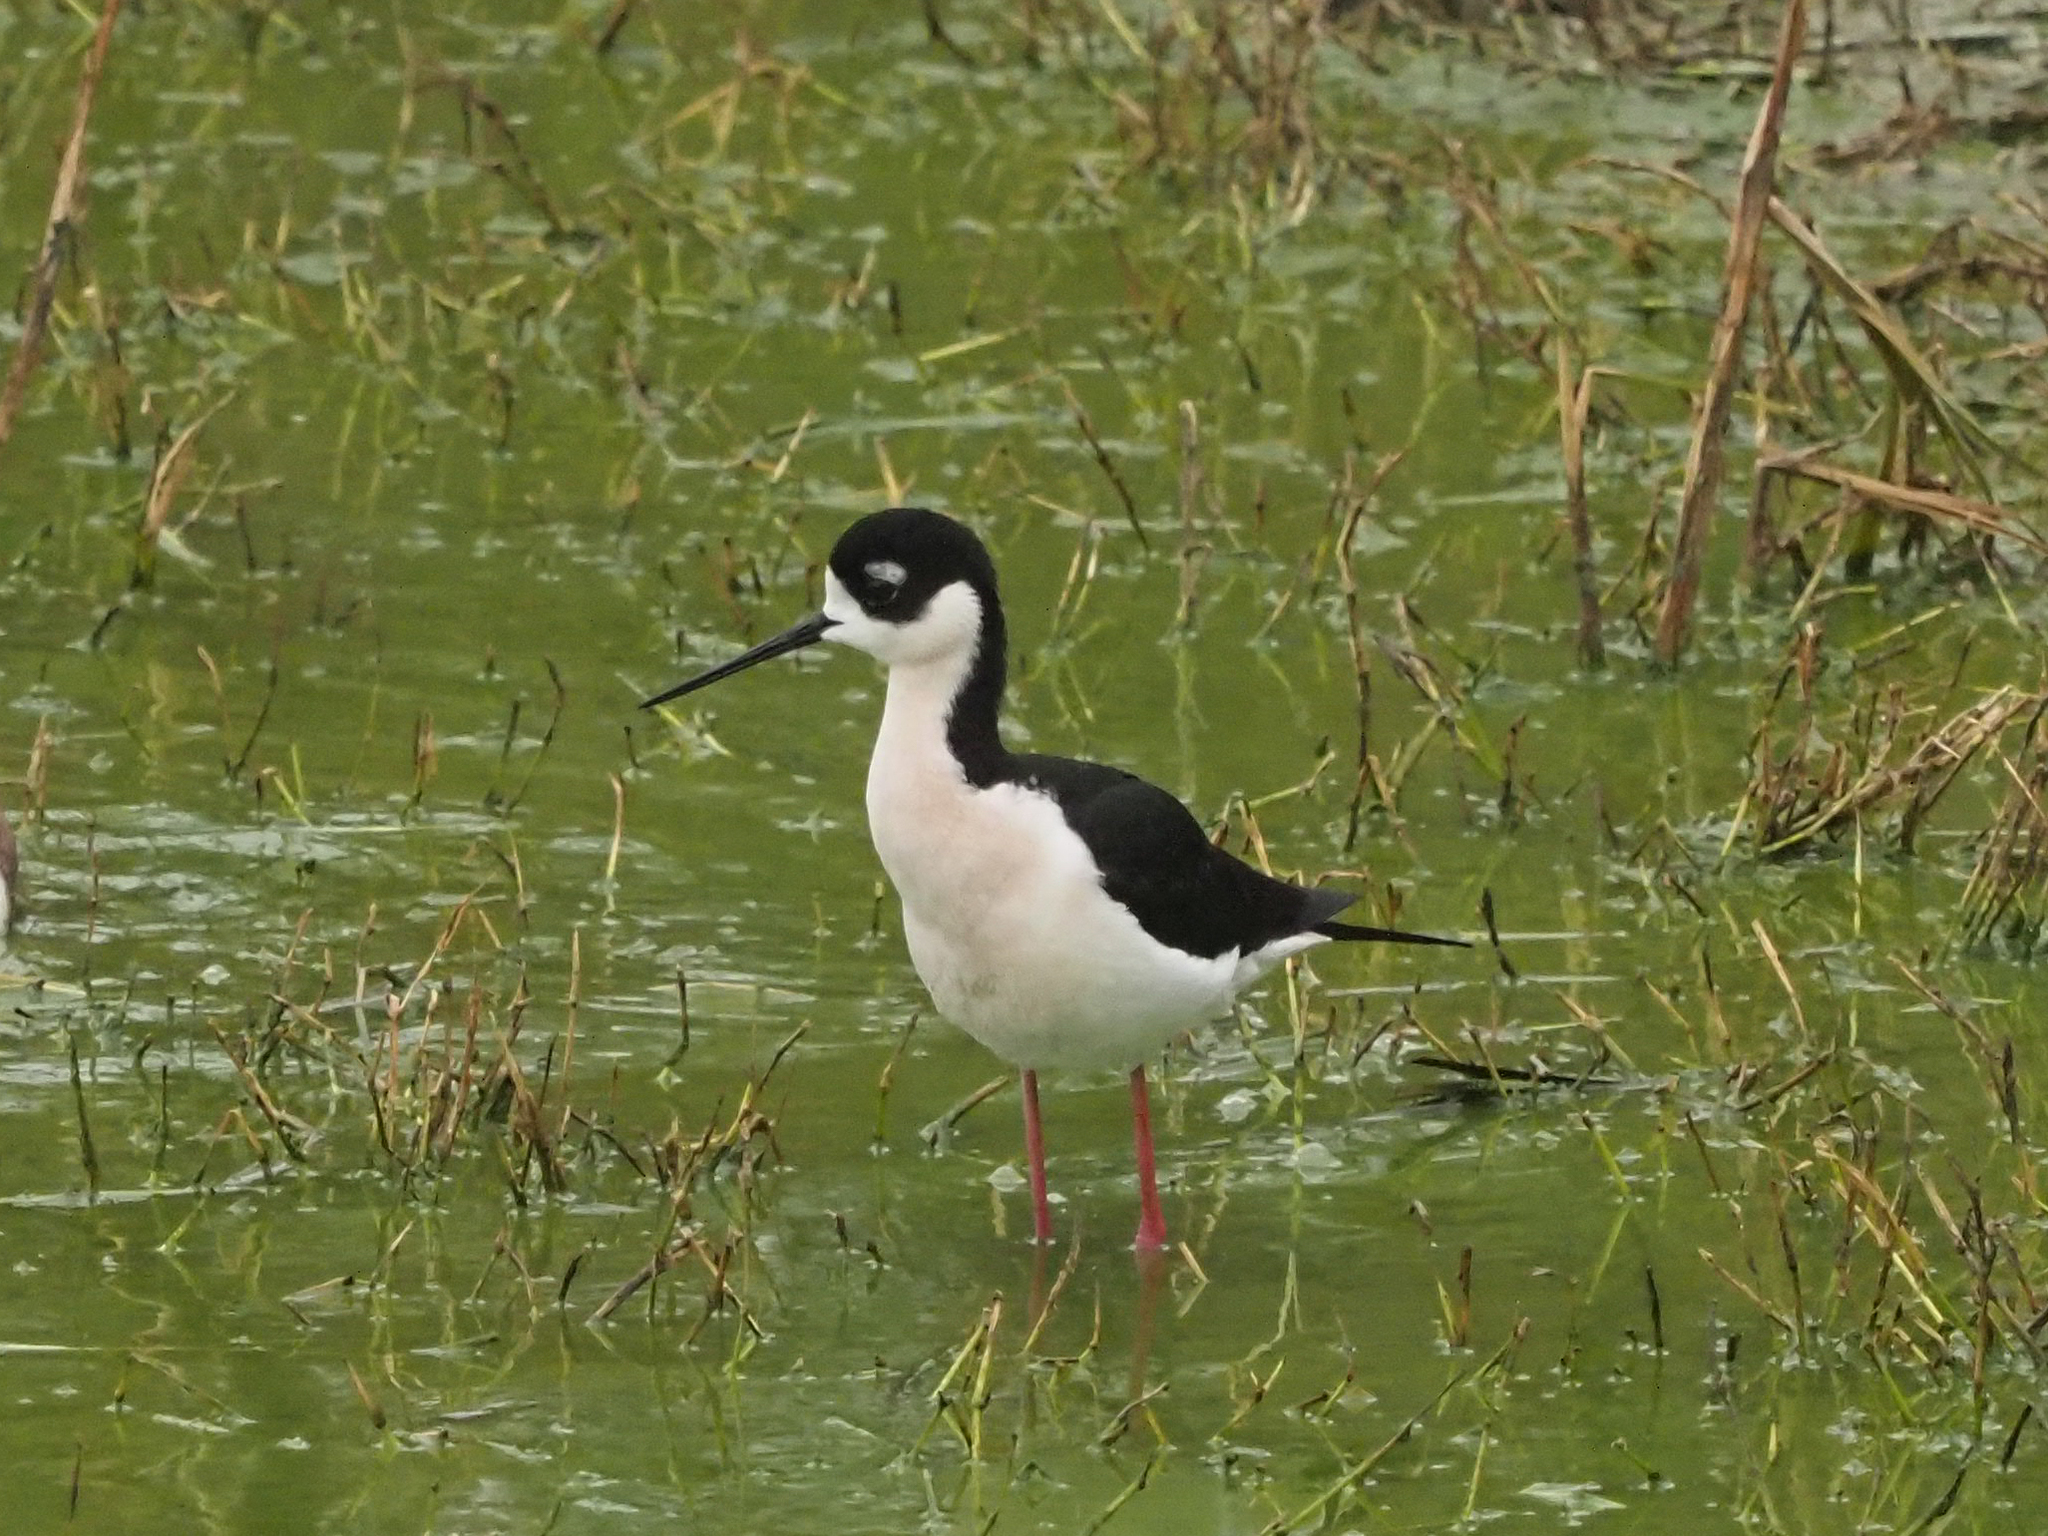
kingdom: Animalia
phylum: Chordata
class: Aves
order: Charadriiformes
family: Recurvirostridae
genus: Himantopus
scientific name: Himantopus mexicanus
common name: Black-necked stilt
